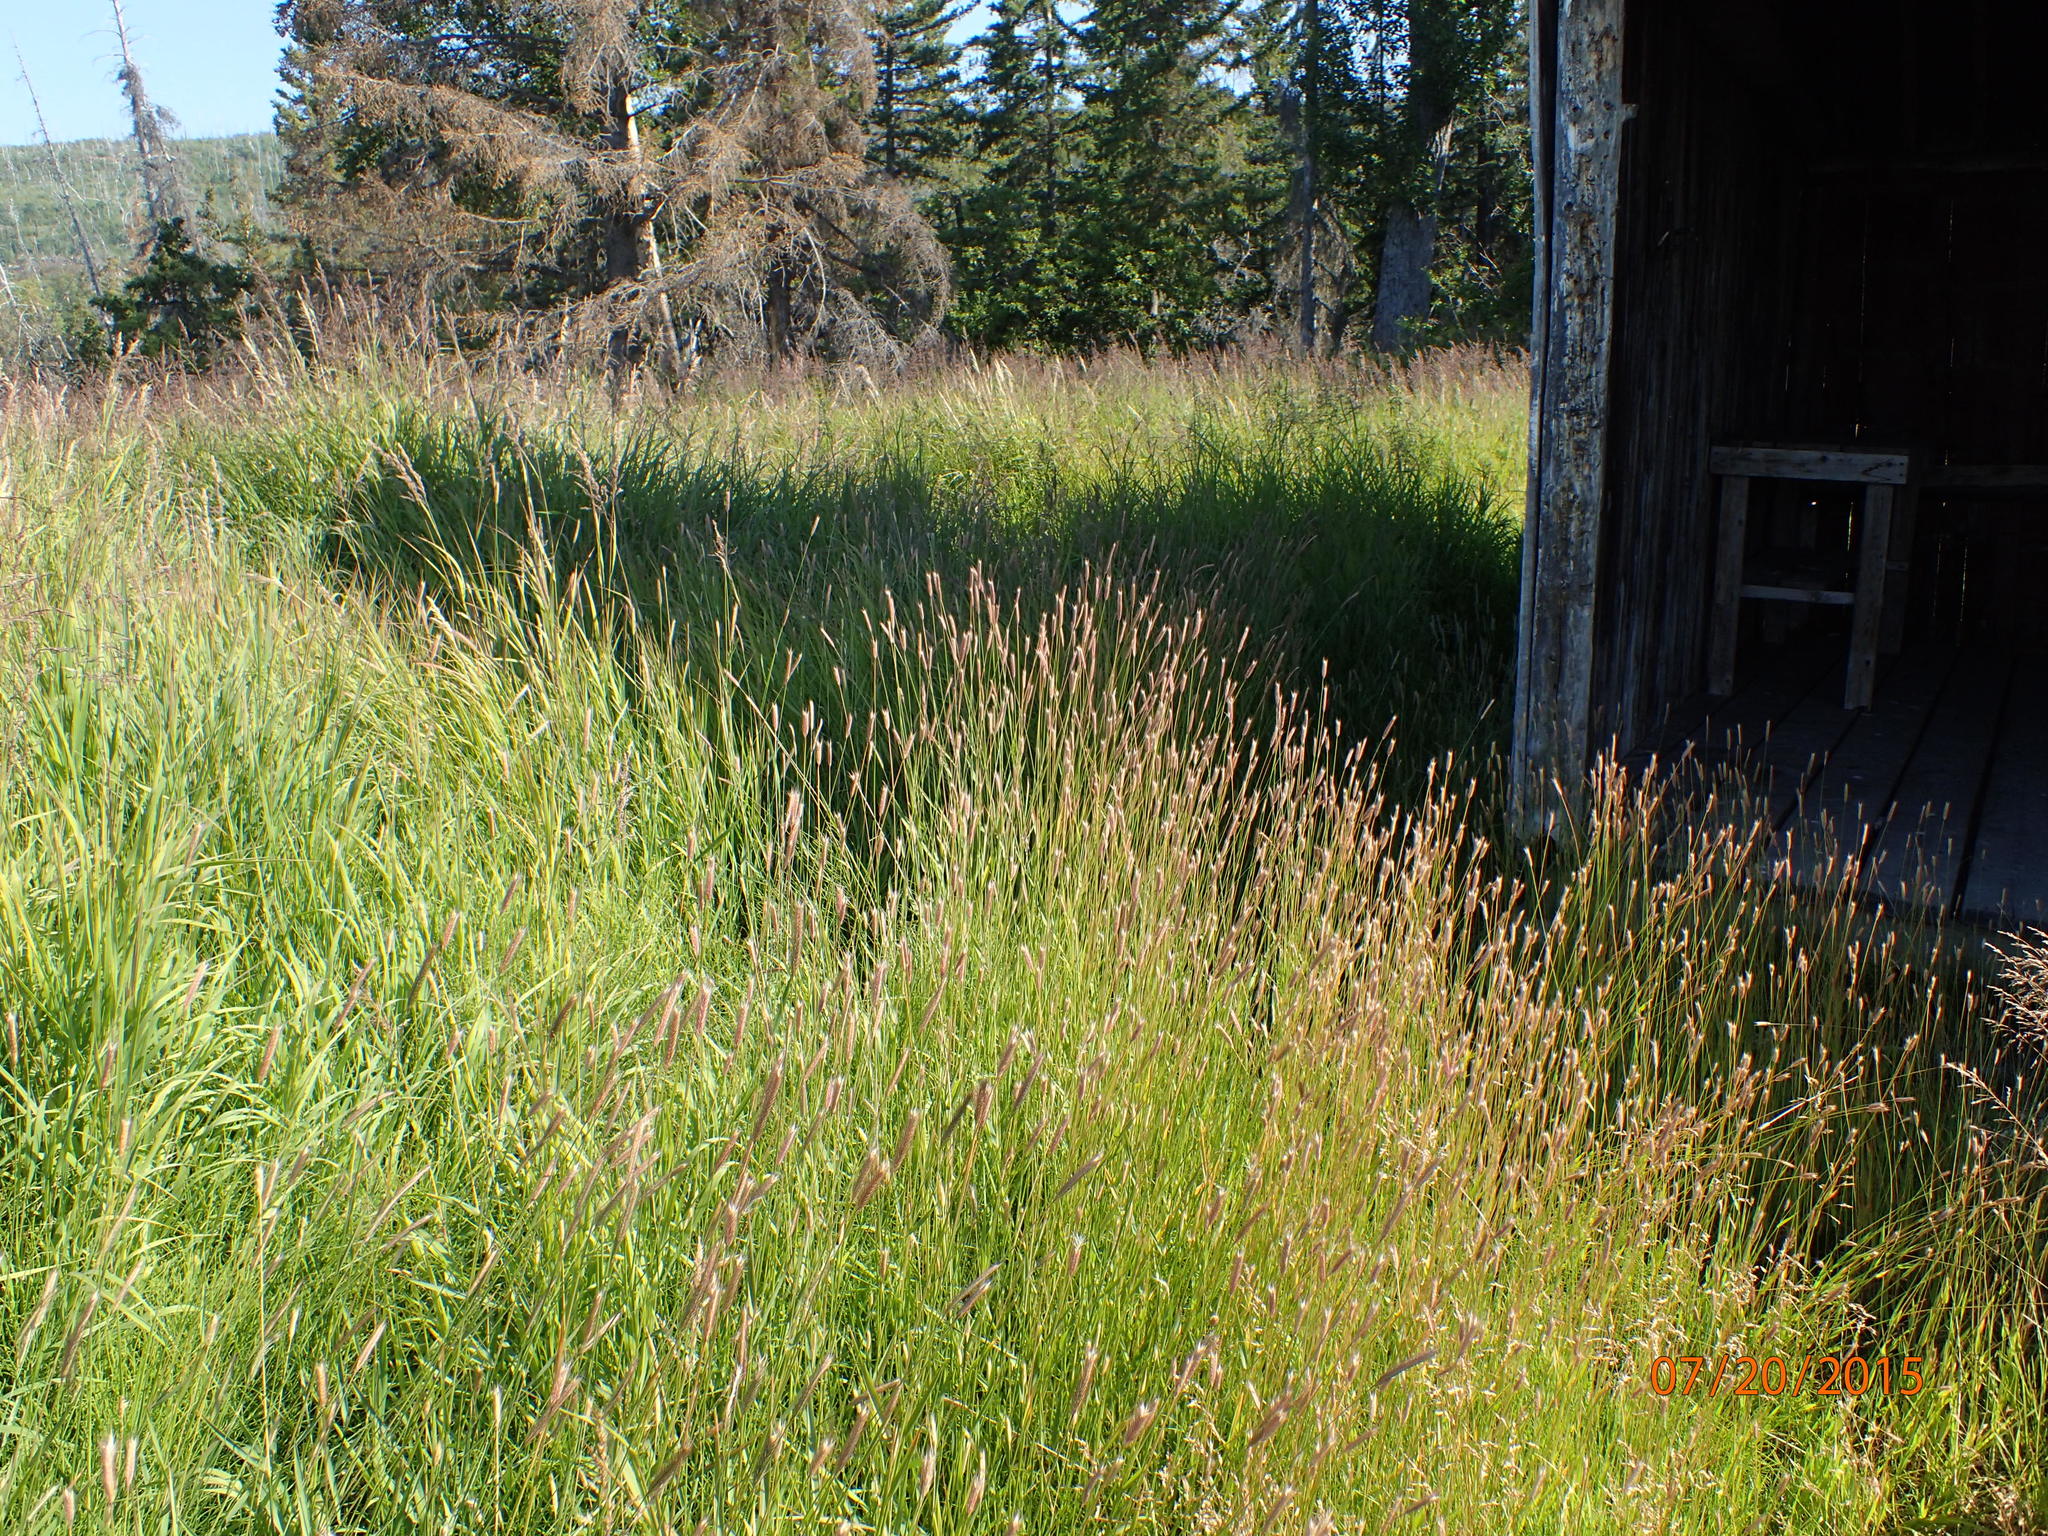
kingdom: Plantae
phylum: Tracheophyta
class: Liliopsida
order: Poales
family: Poaceae
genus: Hordeum
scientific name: Hordeum brachyantherum
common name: Meadow barley
